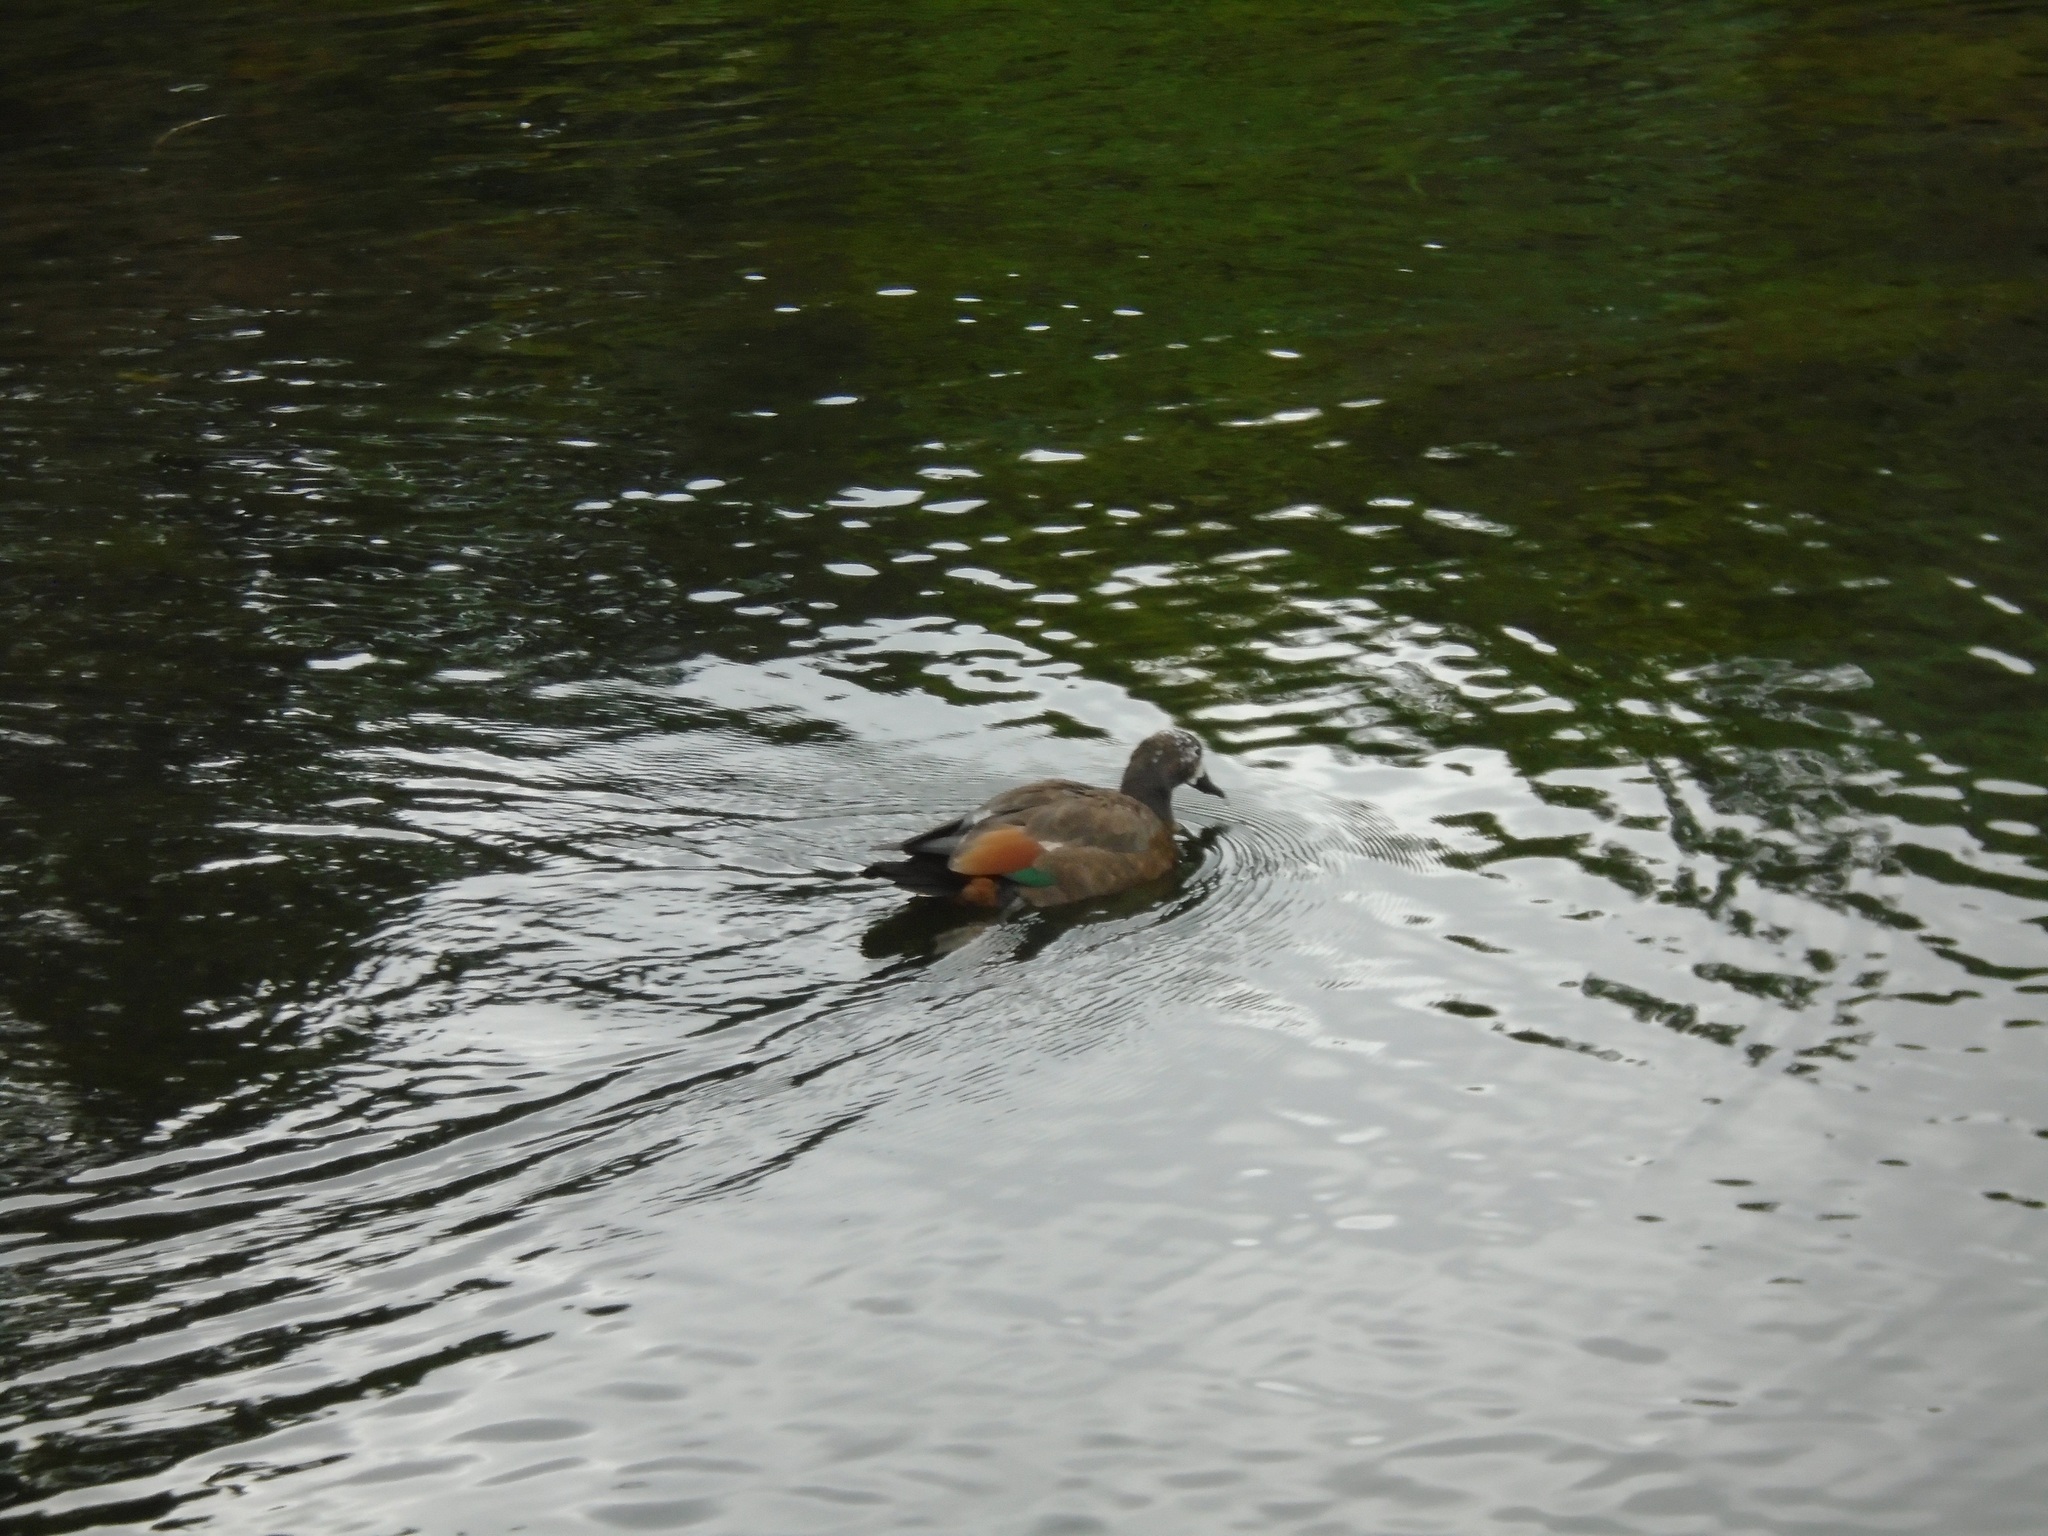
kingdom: Animalia
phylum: Chordata
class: Aves
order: Anseriformes
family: Anatidae
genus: Tadorna
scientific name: Tadorna variegata
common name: Paradise shelduck
